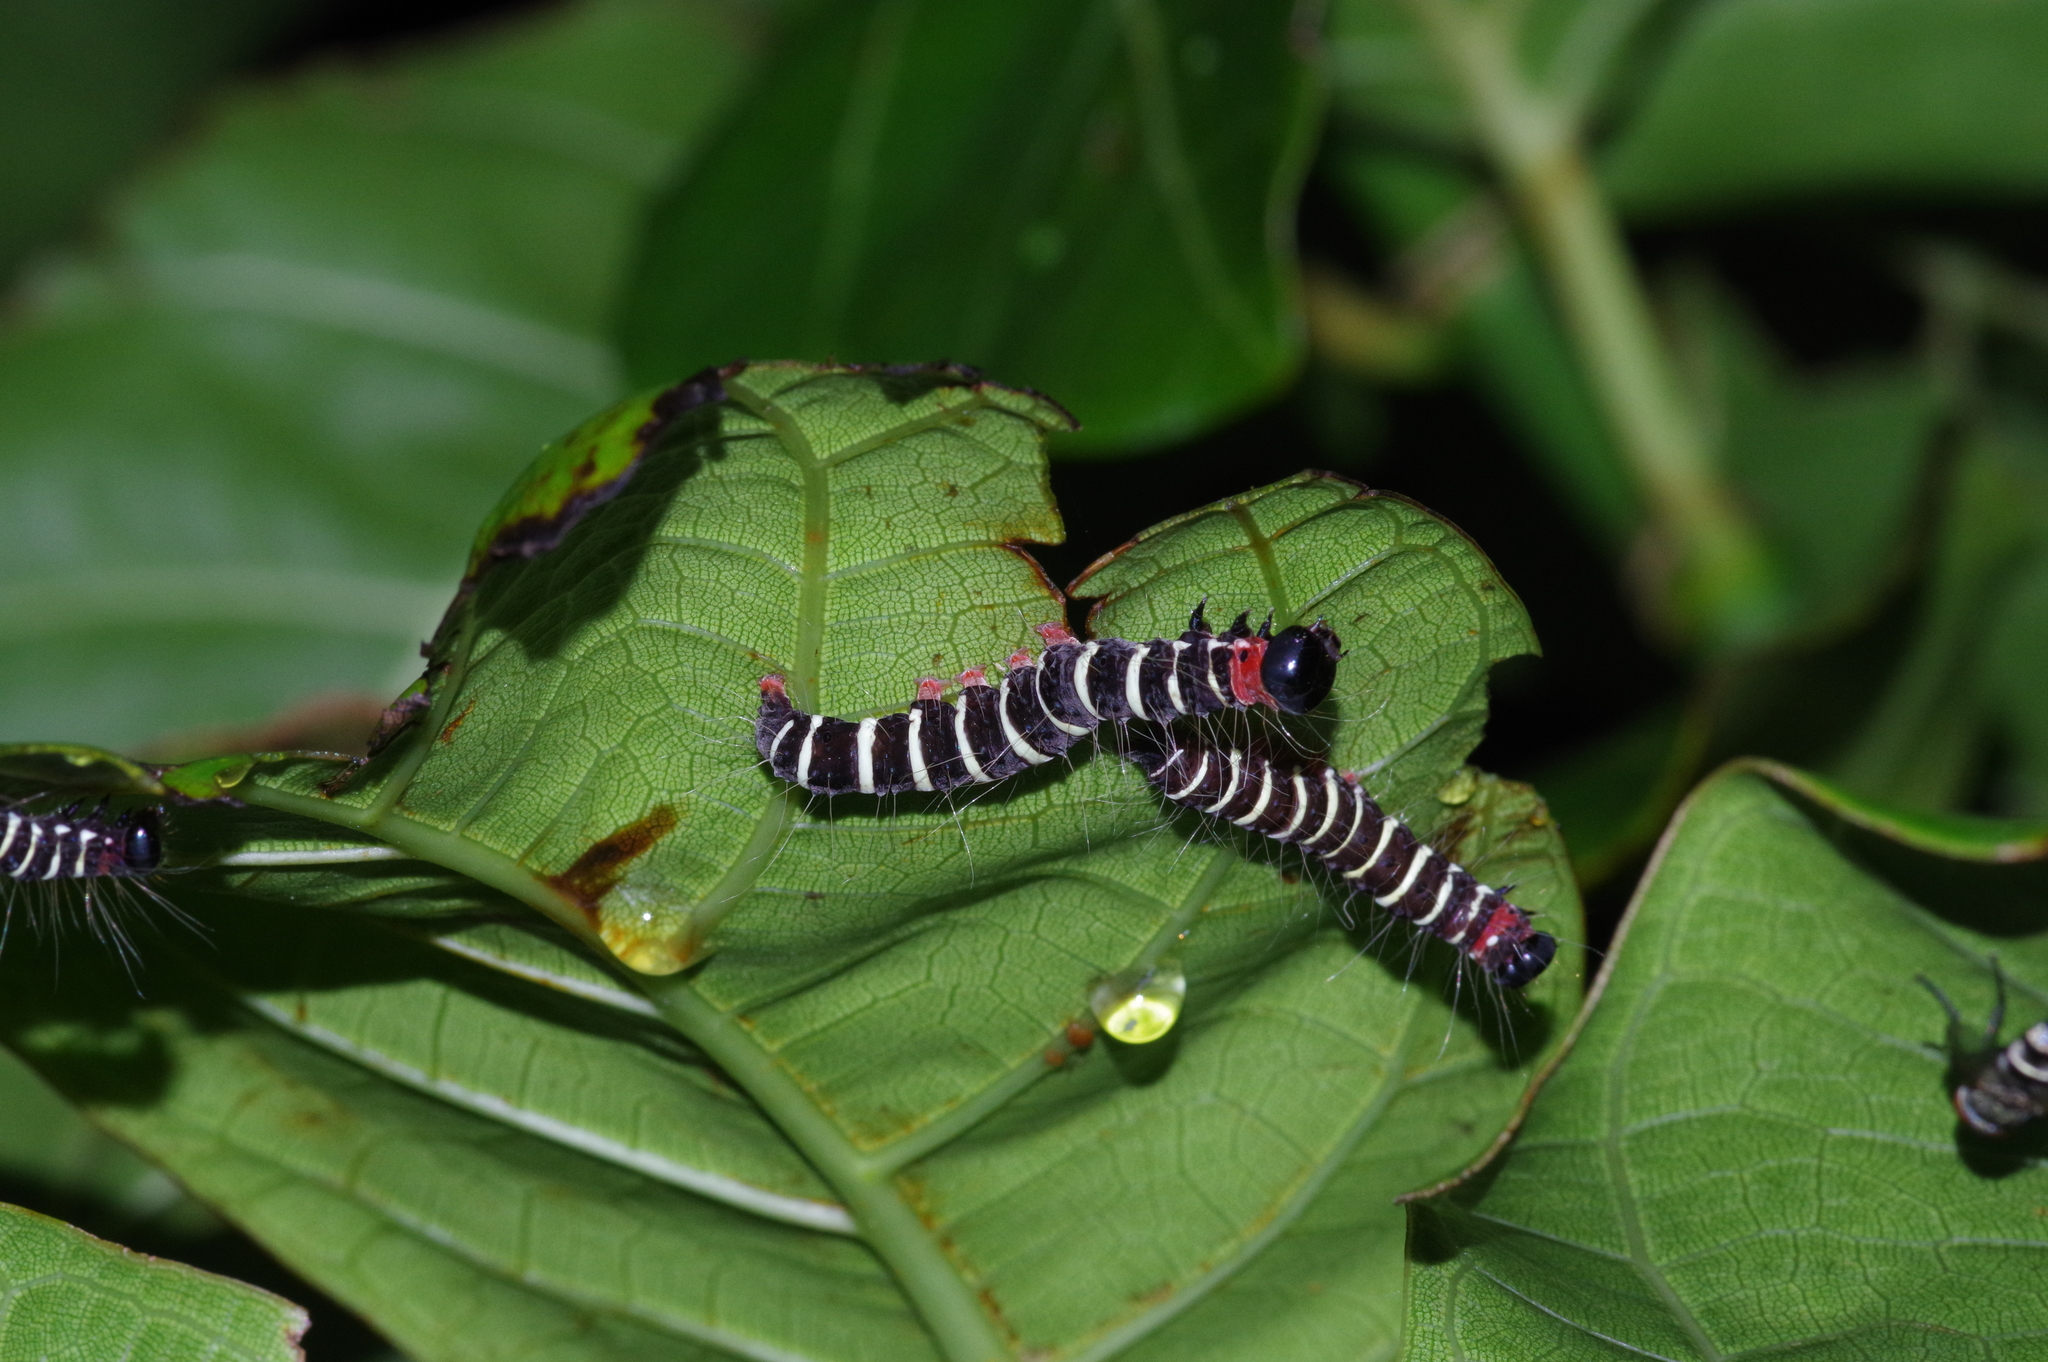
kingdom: Animalia
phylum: Arthropoda
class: Insecta
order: Lepidoptera
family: Erebidae
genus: Asota
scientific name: Asota plana
